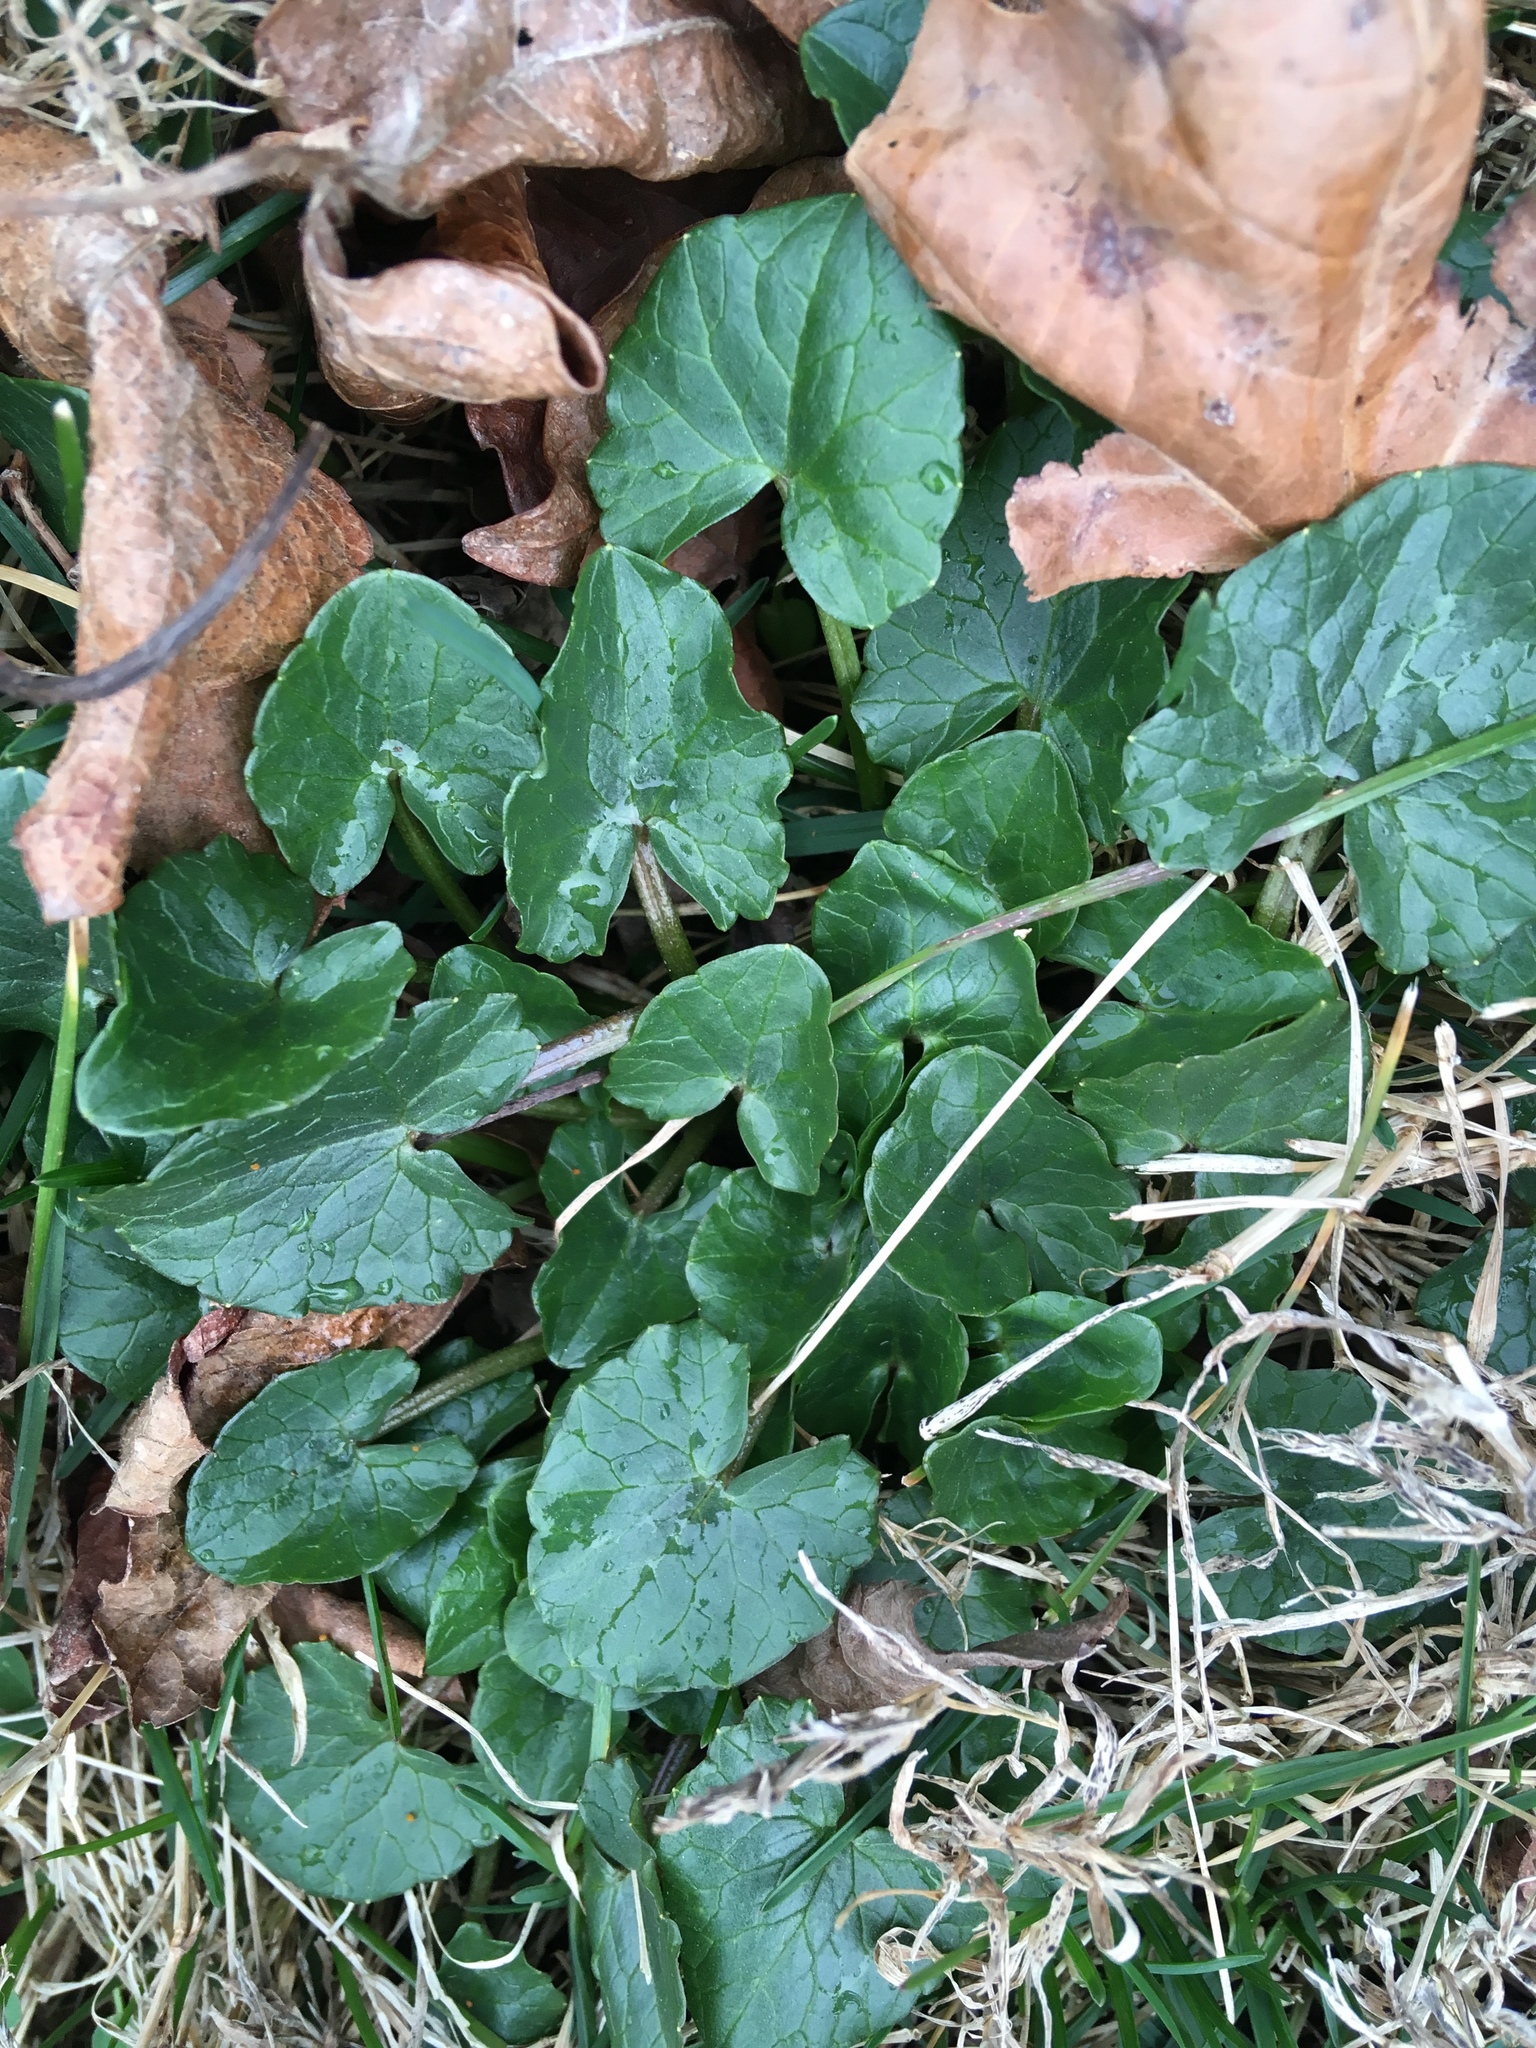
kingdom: Plantae
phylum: Tracheophyta
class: Magnoliopsida
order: Ranunculales
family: Ranunculaceae
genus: Ficaria
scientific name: Ficaria verna
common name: Lesser celandine
